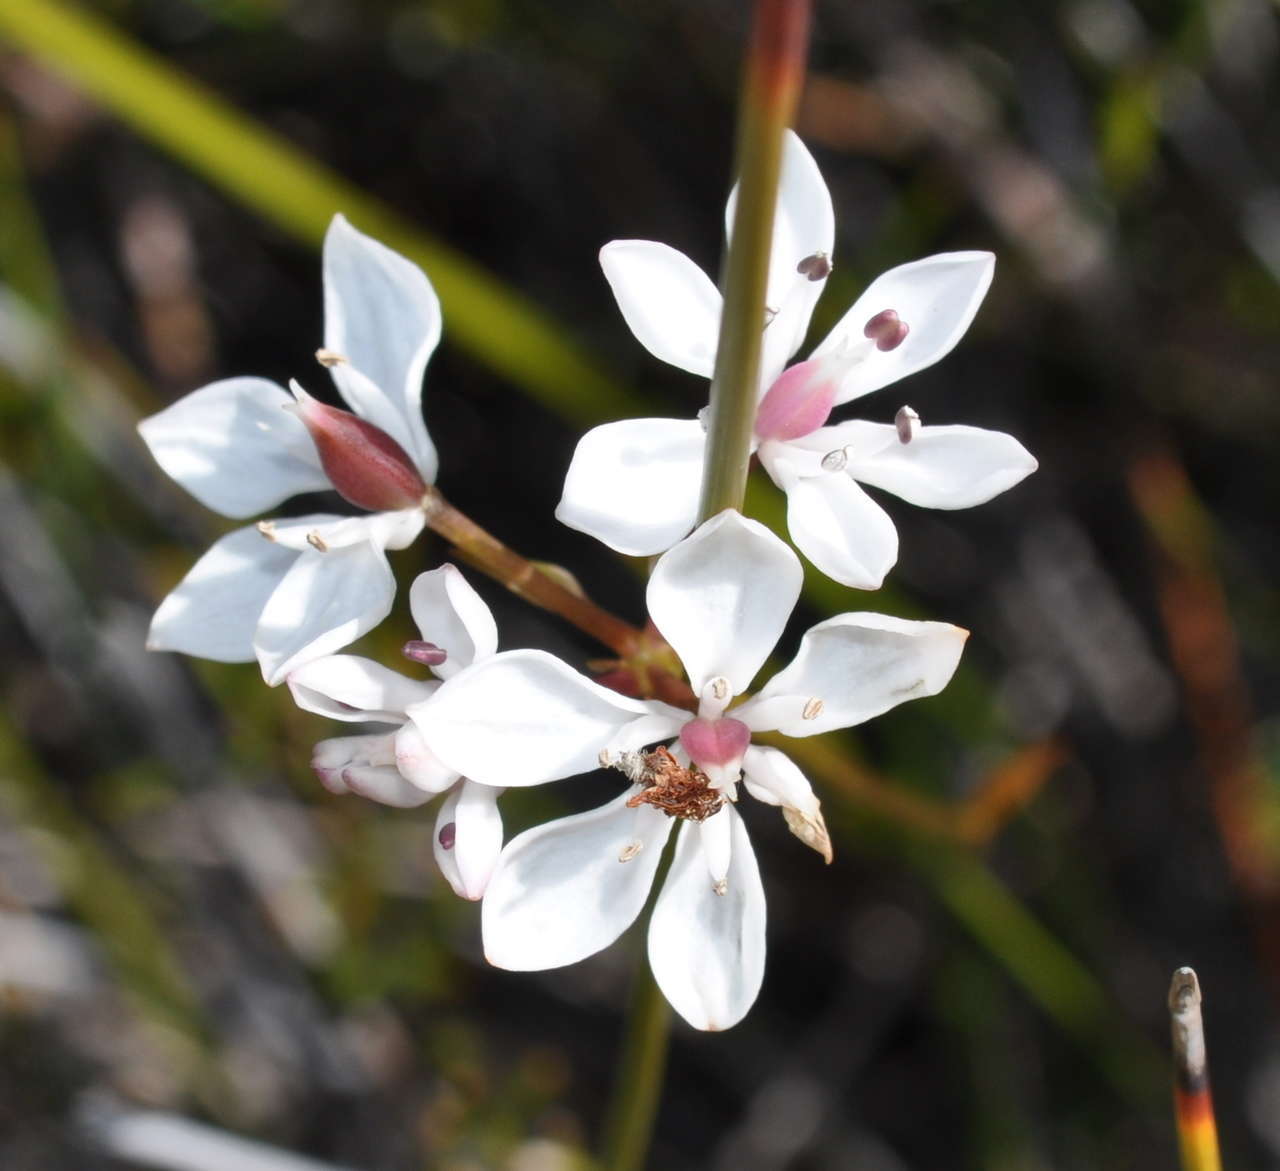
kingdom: Plantae
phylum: Tracheophyta
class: Liliopsida
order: Liliales
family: Colchicaceae
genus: Burchardia
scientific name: Burchardia umbellata
